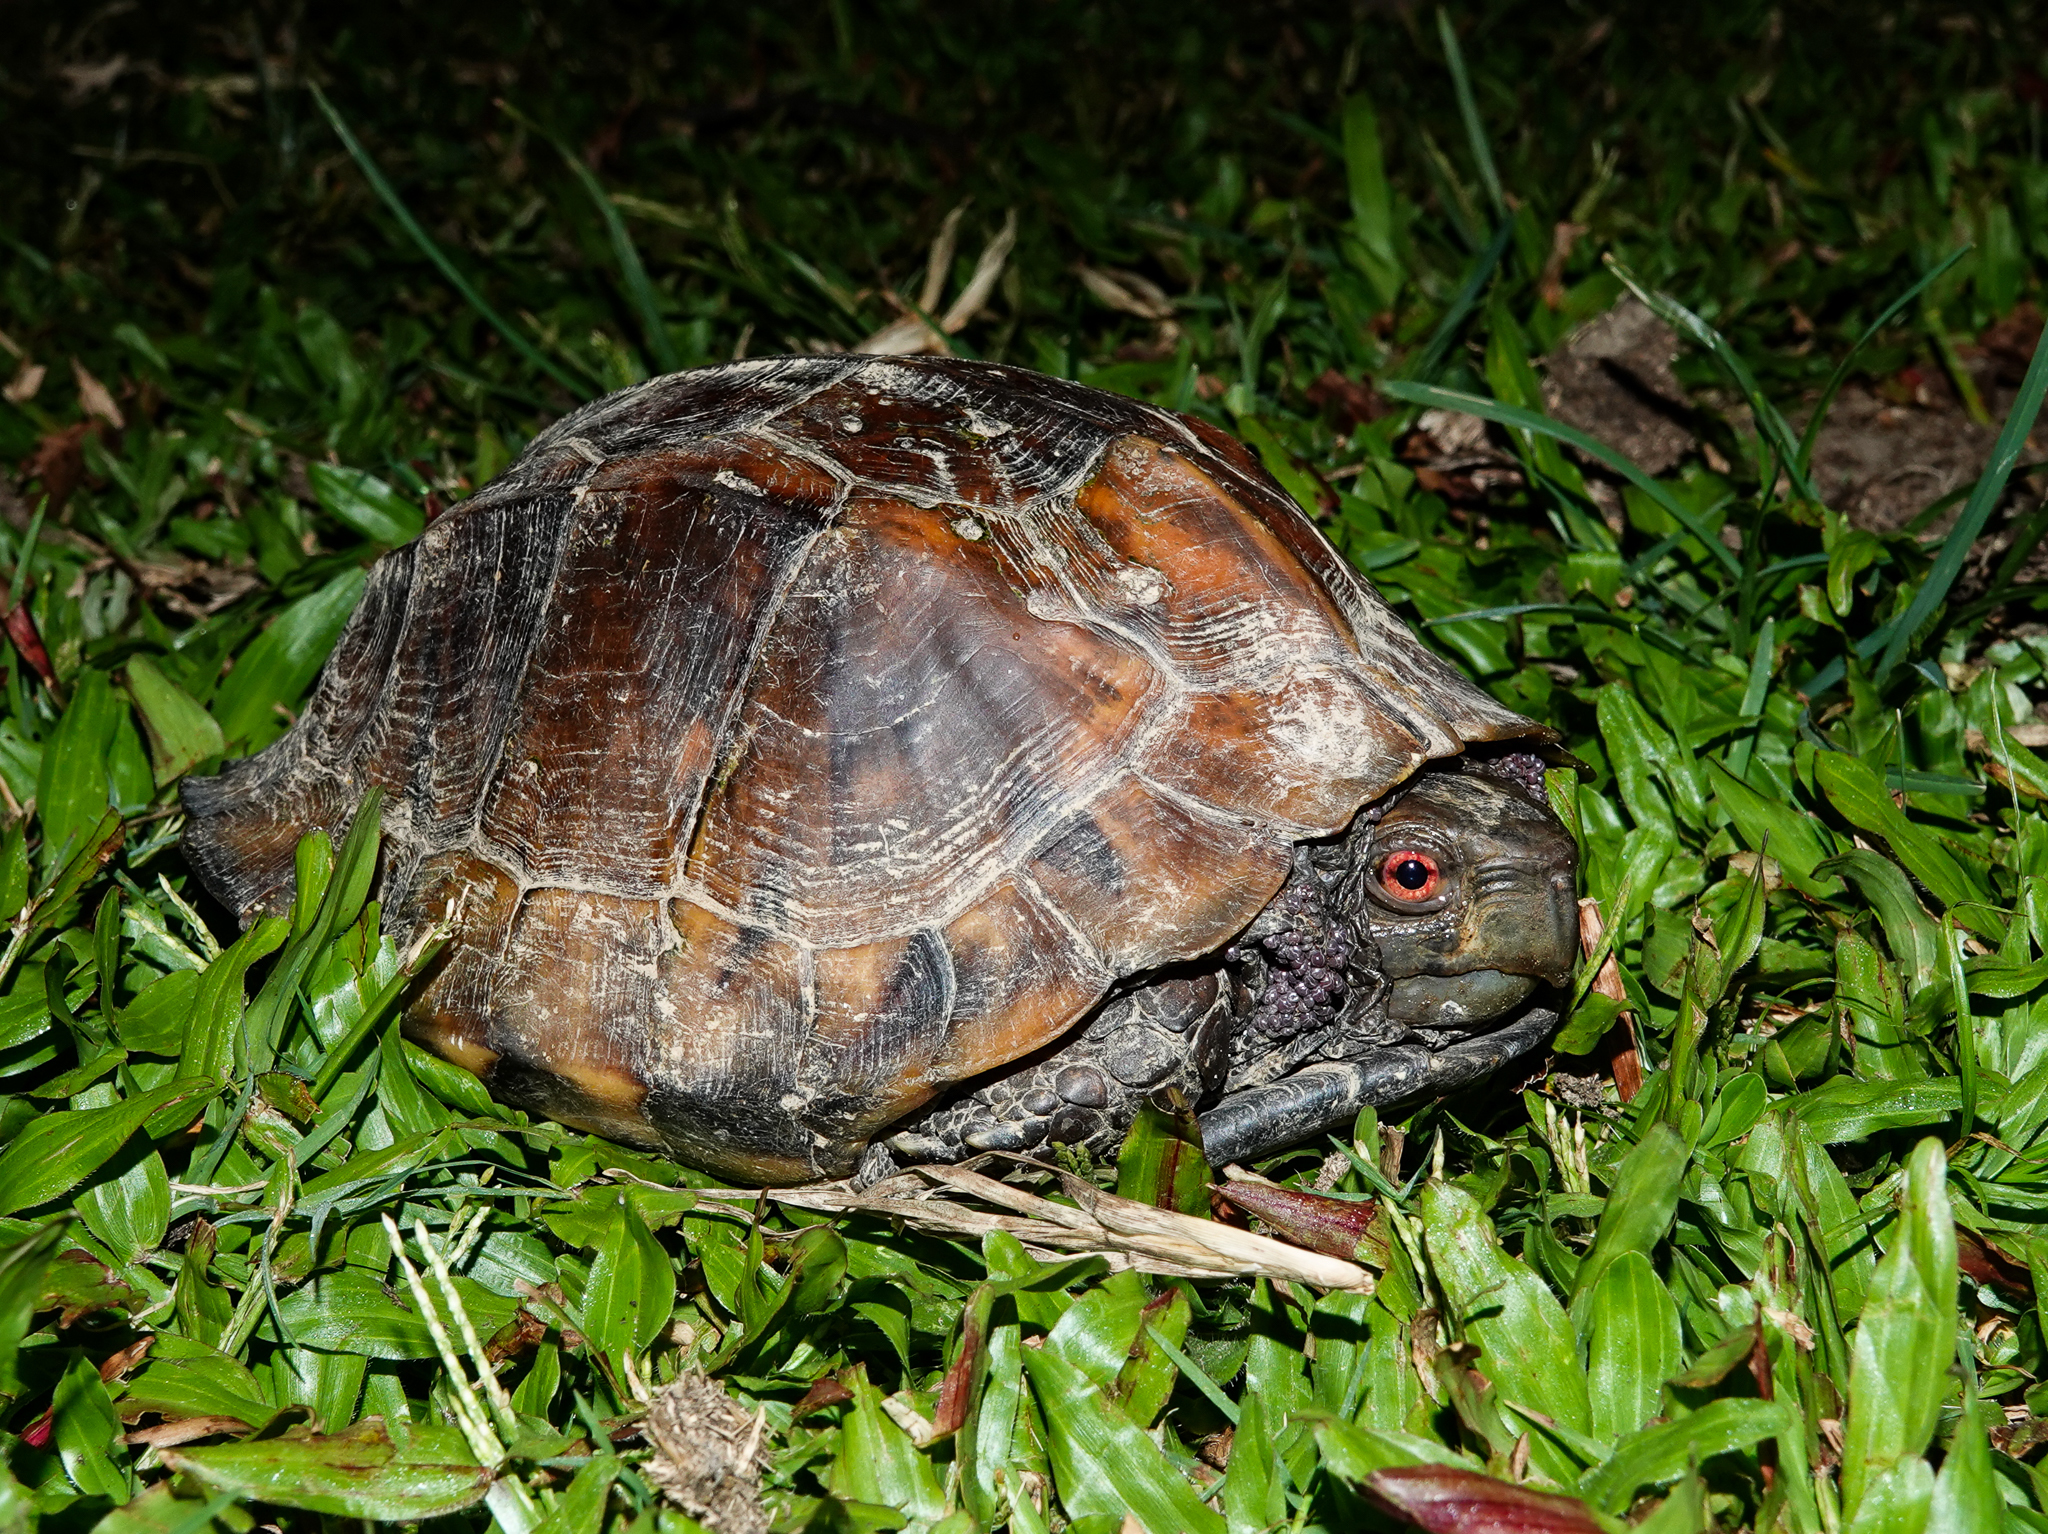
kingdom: Animalia
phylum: Chordata
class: Testudines
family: Geoemydidae
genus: Cuora
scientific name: Cuora mouhotii
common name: Keeled box turtle
